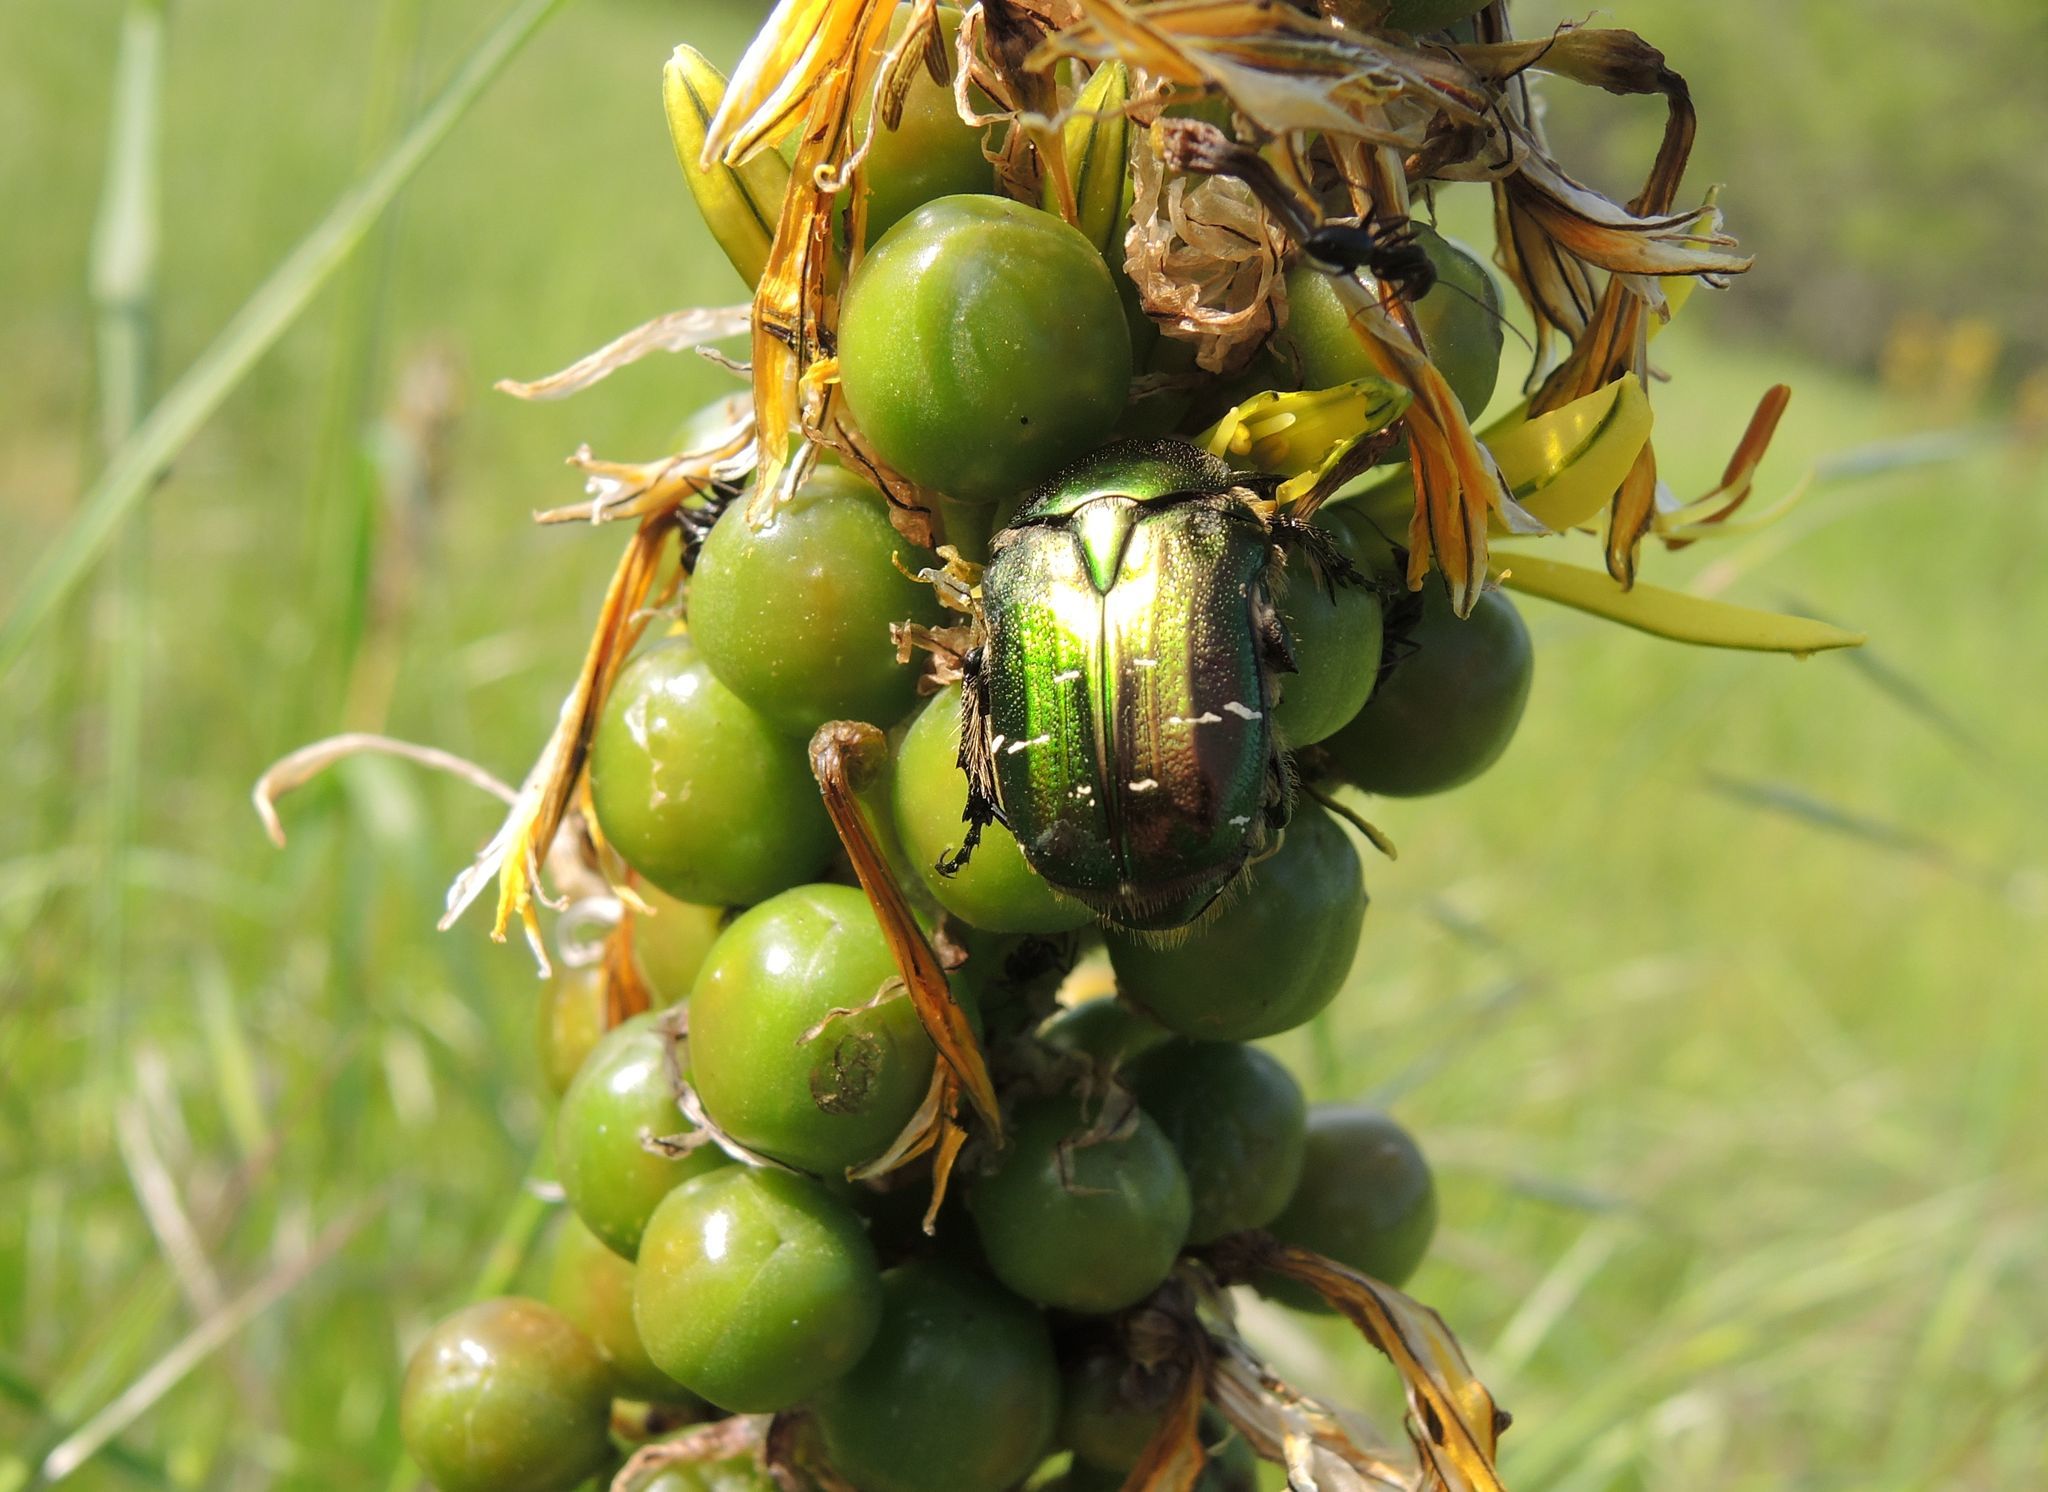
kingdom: Animalia
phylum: Arthropoda
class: Insecta
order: Coleoptera
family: Scarabaeidae
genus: Cetonia
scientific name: Cetonia aurata
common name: Rose chafer
